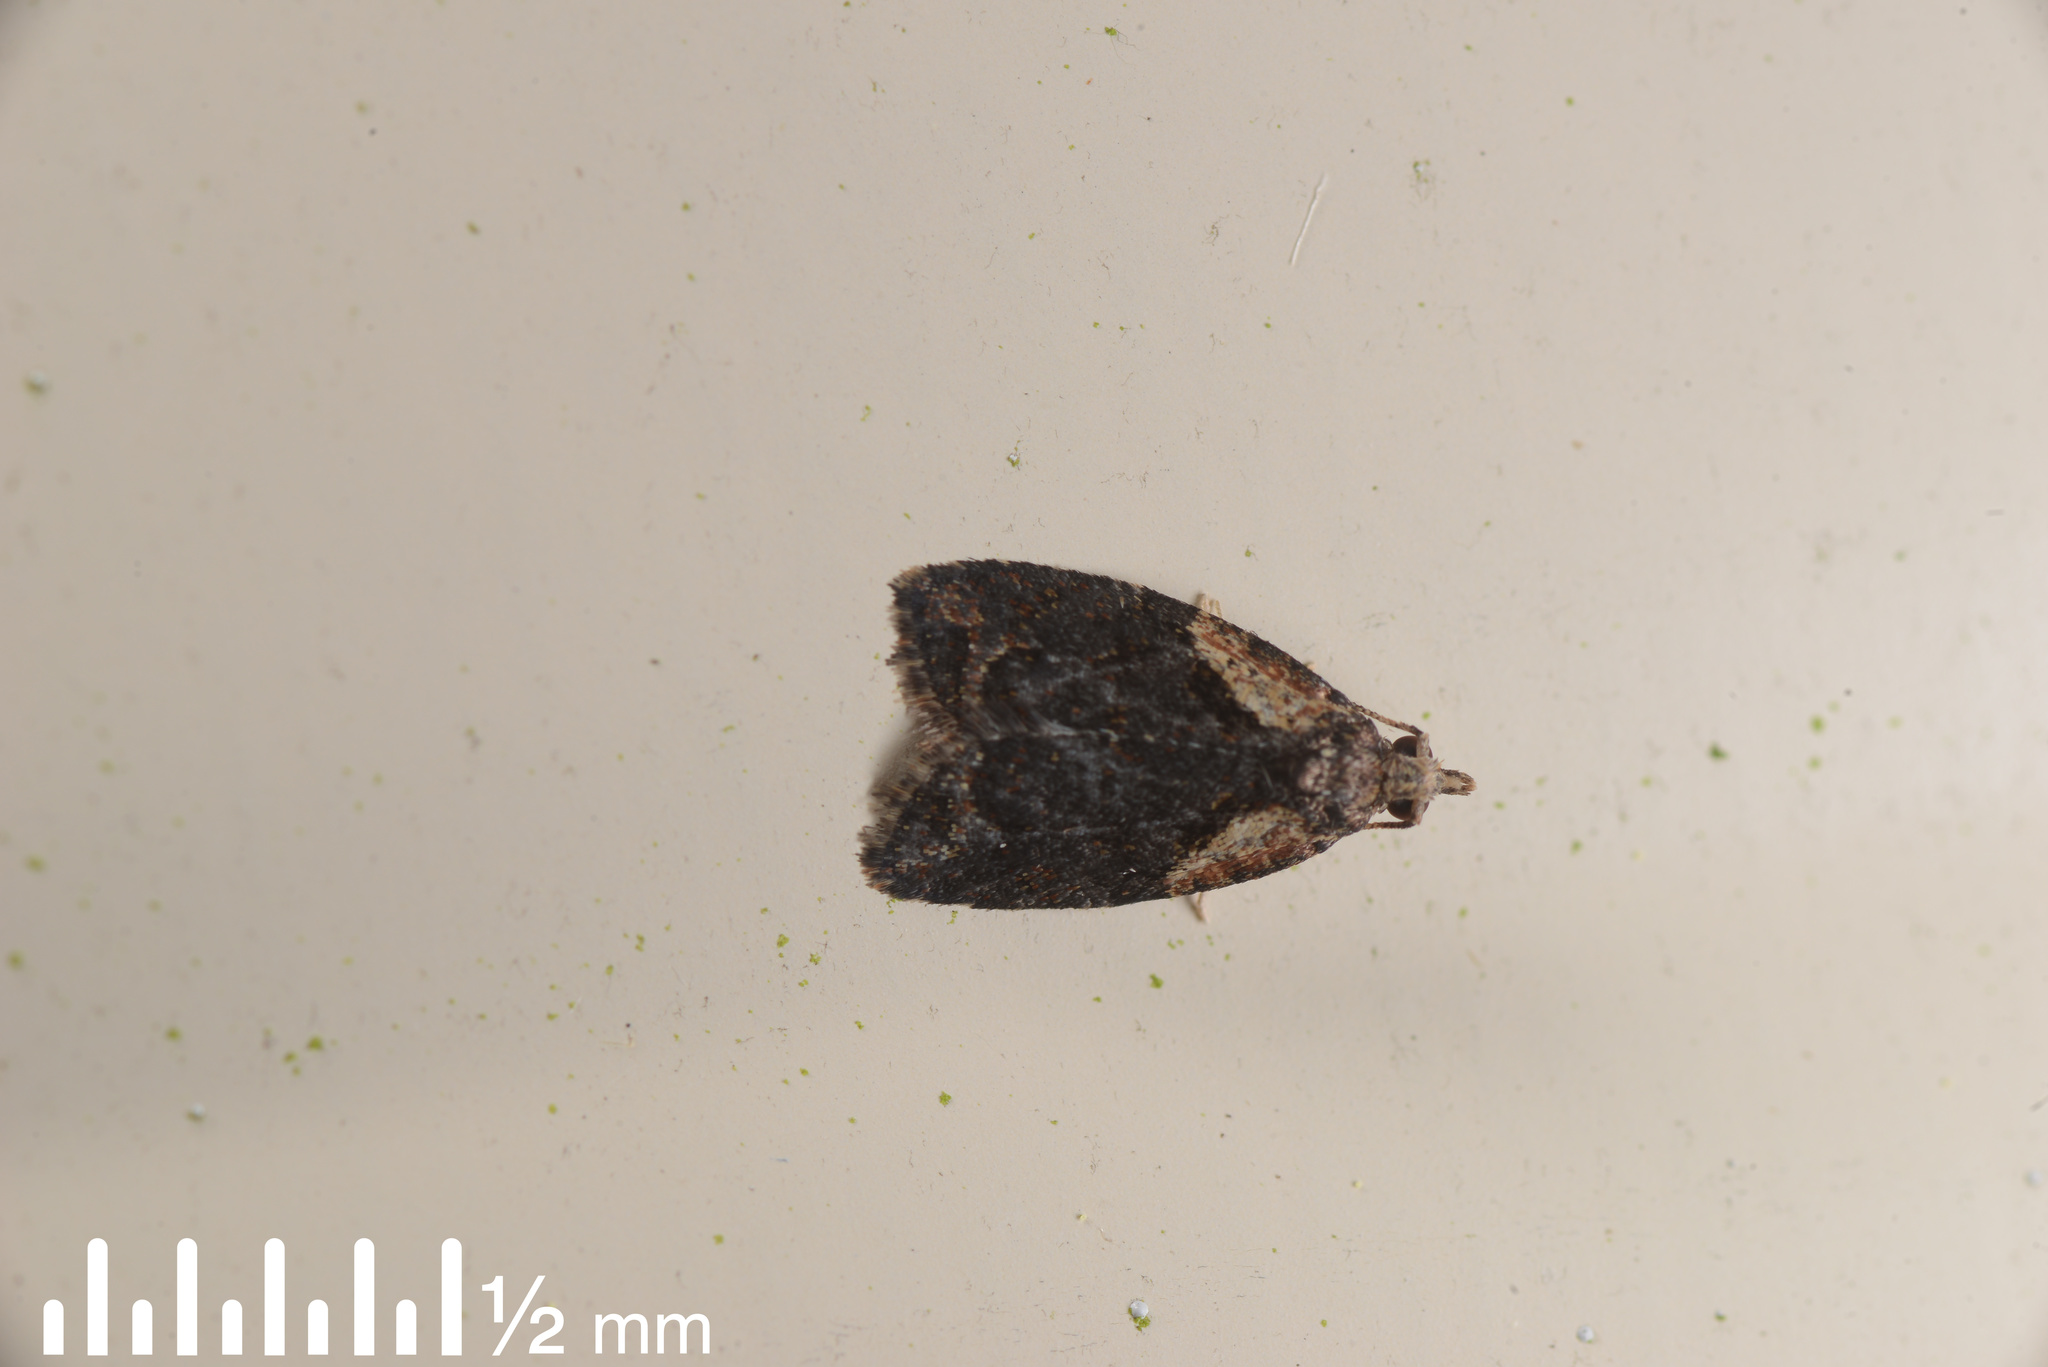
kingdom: Animalia
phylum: Arthropoda
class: Insecta
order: Lepidoptera
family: Tortricidae
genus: Capua
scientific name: Capua intractana
